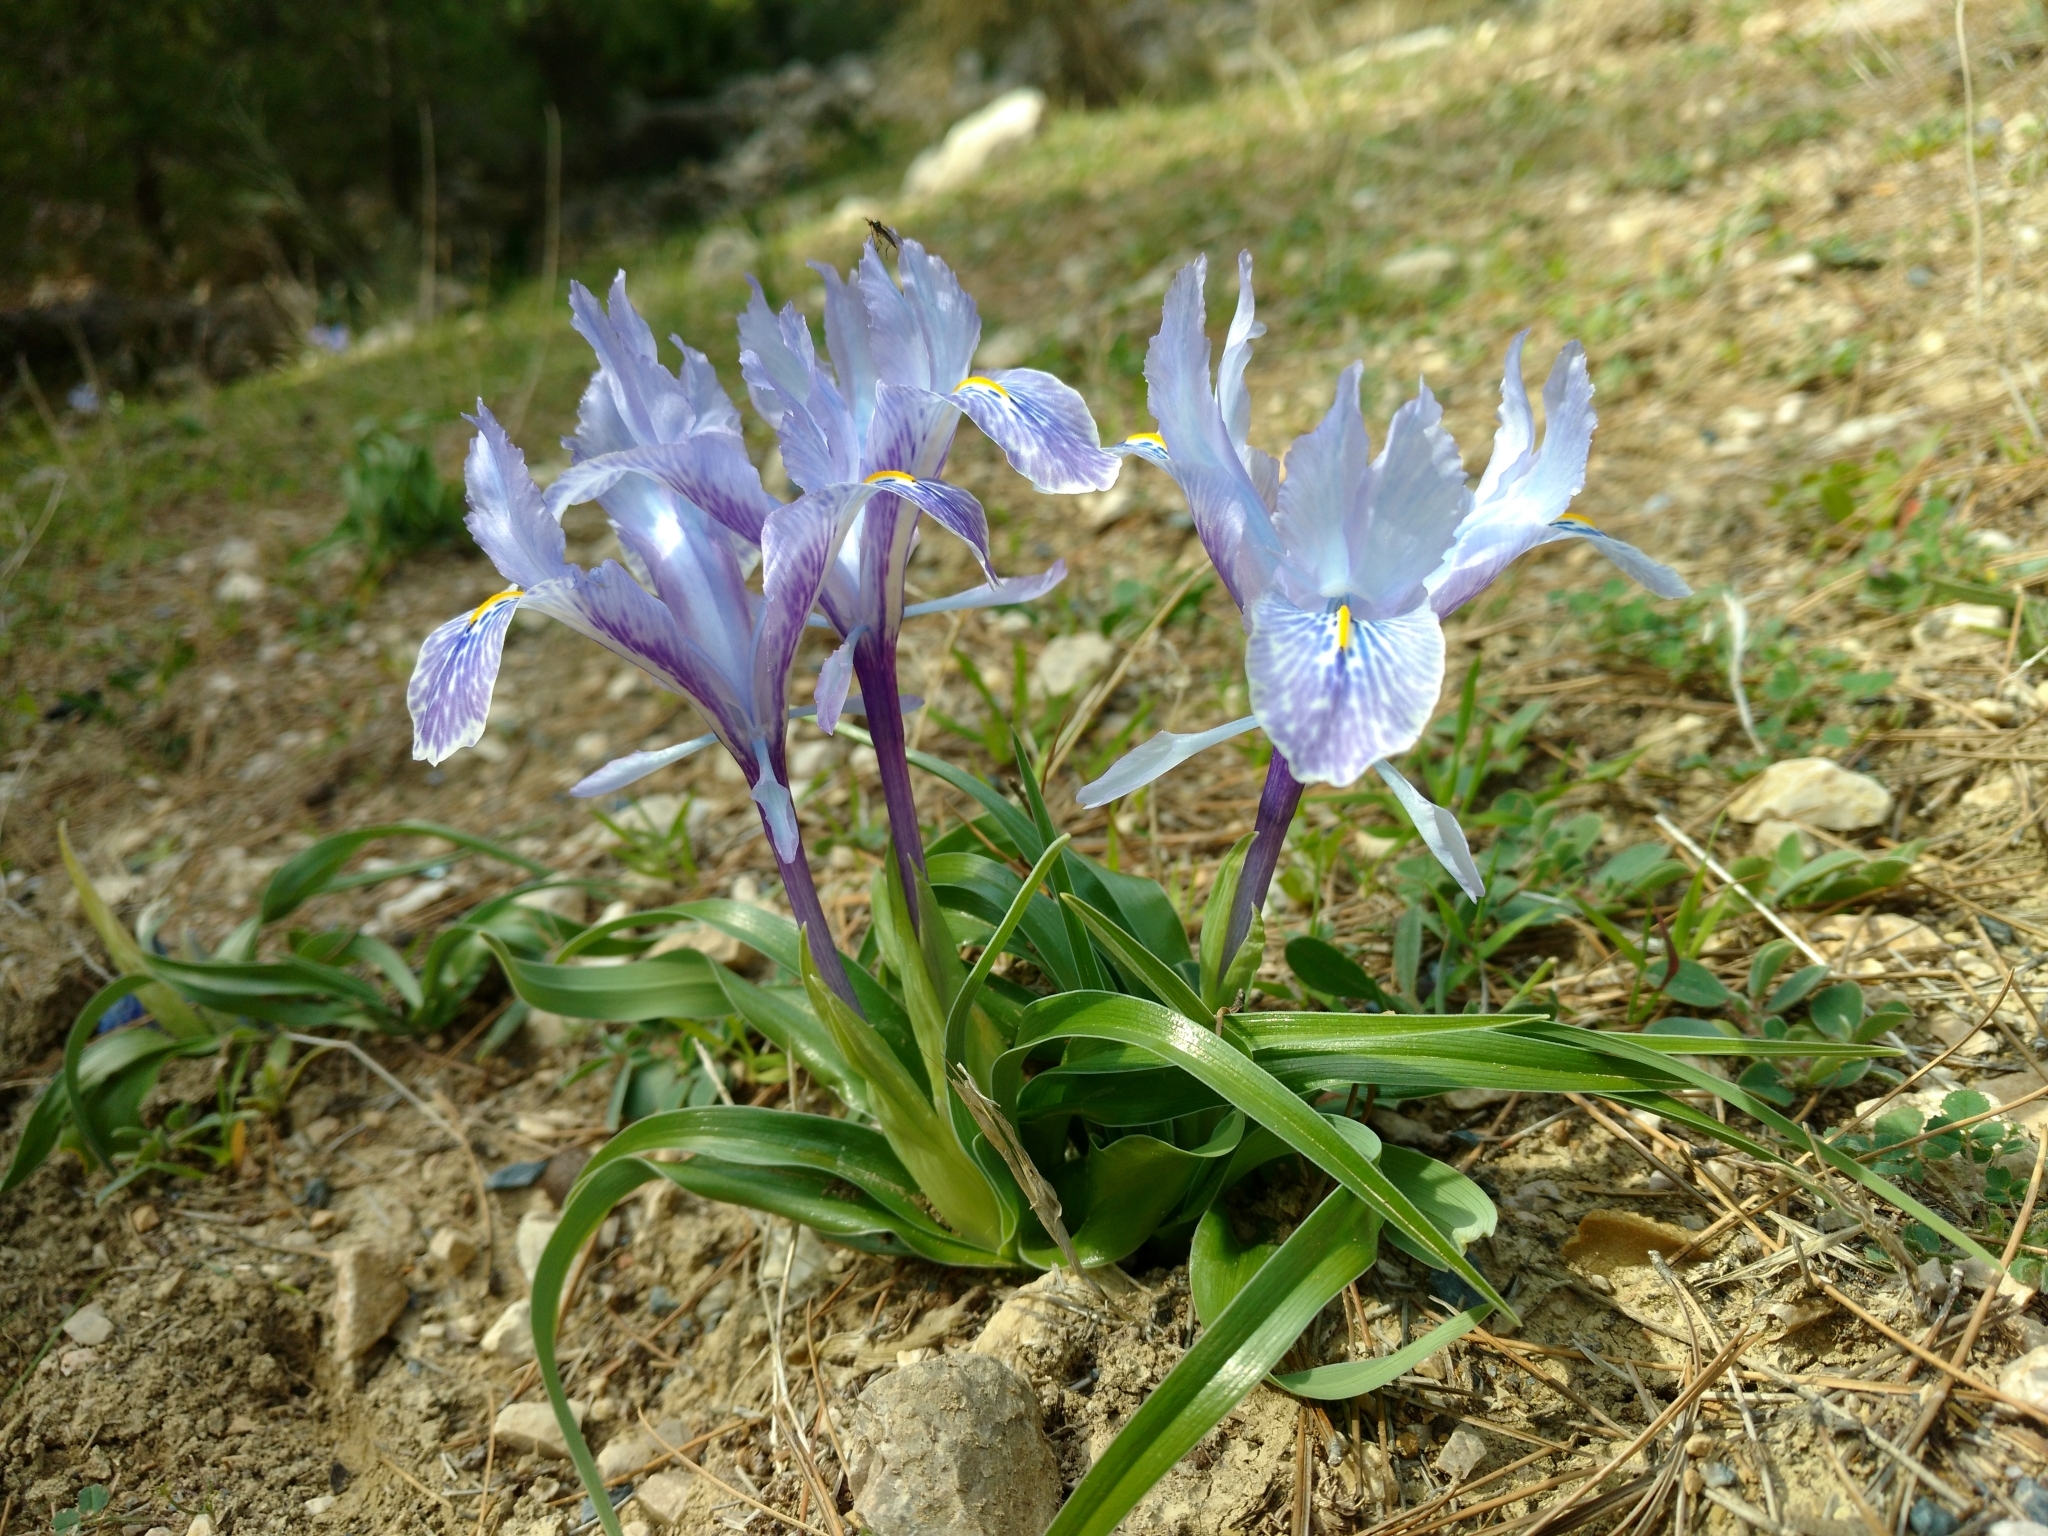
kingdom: Plantae
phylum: Tracheophyta
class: Liliopsida
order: Asparagales
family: Iridaceae
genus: Iris
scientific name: Iris planifolia
